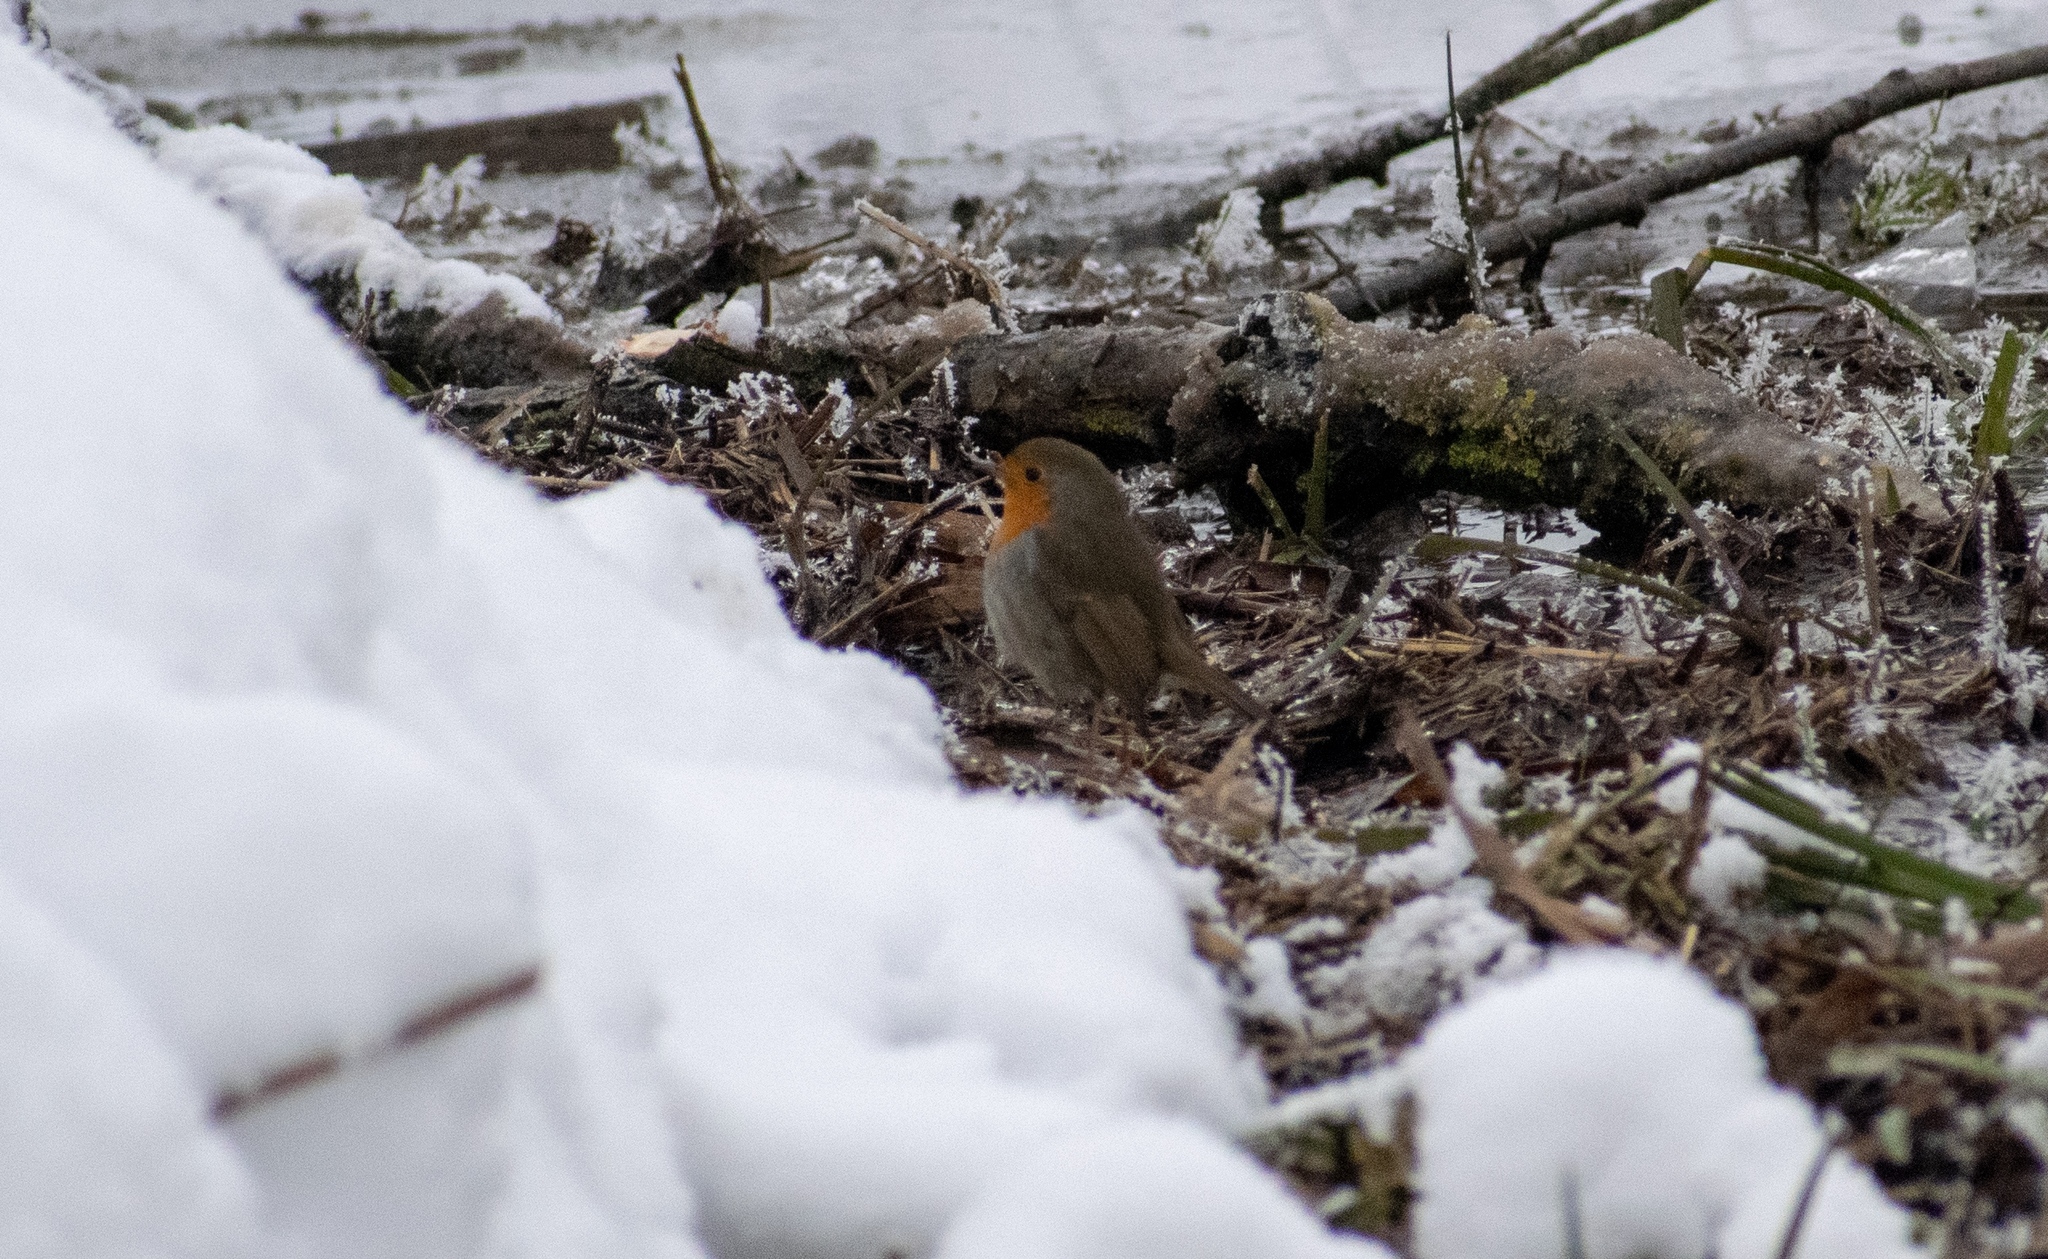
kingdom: Animalia
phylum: Chordata
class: Aves
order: Passeriformes
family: Muscicapidae
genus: Erithacus
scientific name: Erithacus rubecula
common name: European robin
